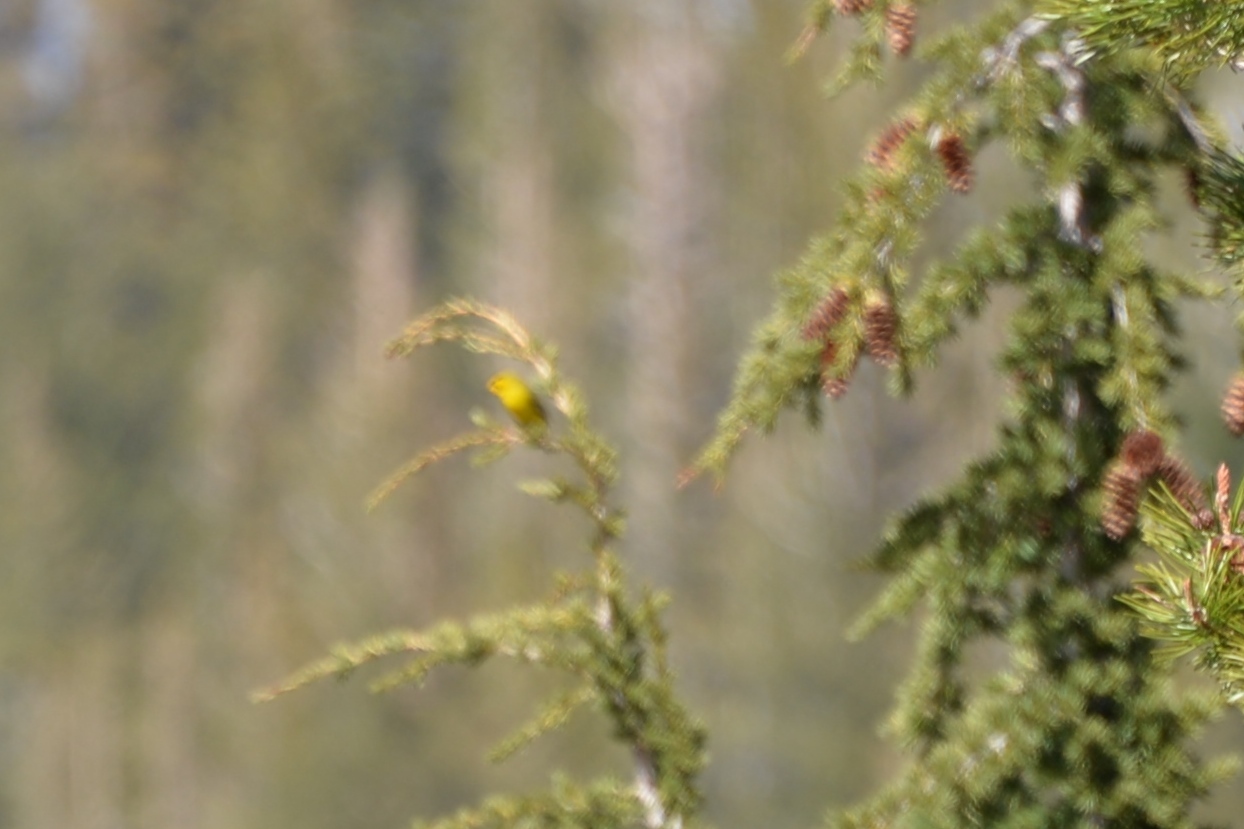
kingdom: Animalia
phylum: Chordata
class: Aves
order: Passeriformes
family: Parulidae
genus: Cardellina
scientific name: Cardellina pusilla
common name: Wilson's warbler
